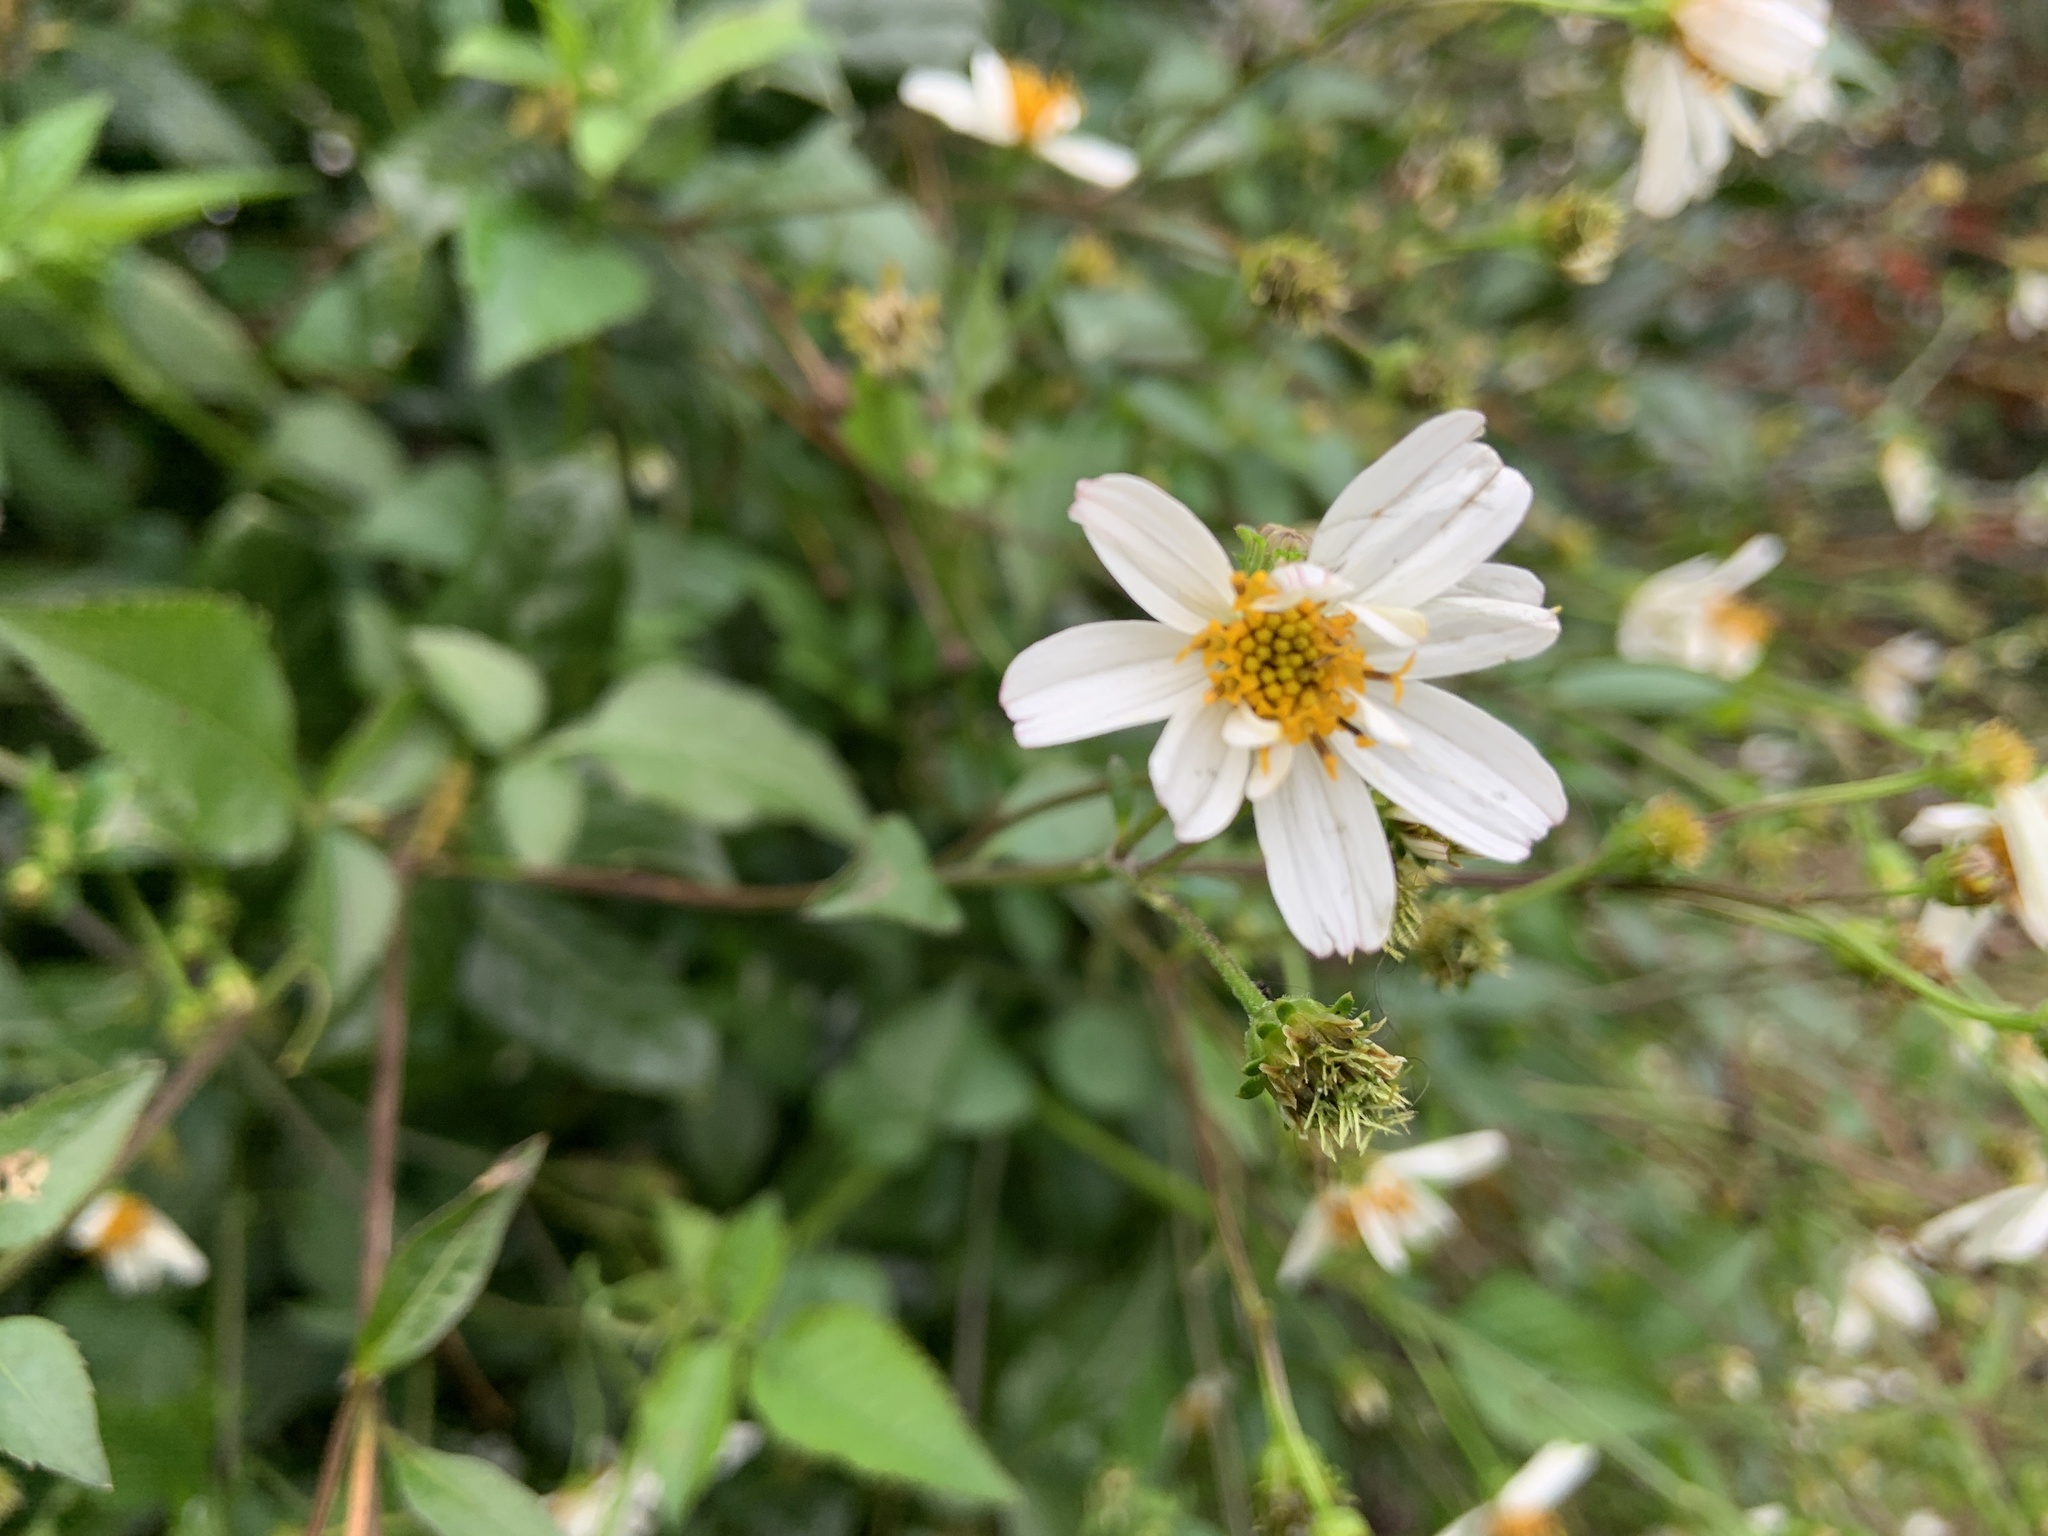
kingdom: Plantae
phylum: Tracheophyta
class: Magnoliopsida
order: Asterales
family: Asteraceae
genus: Bidens
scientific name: Bidens alba
